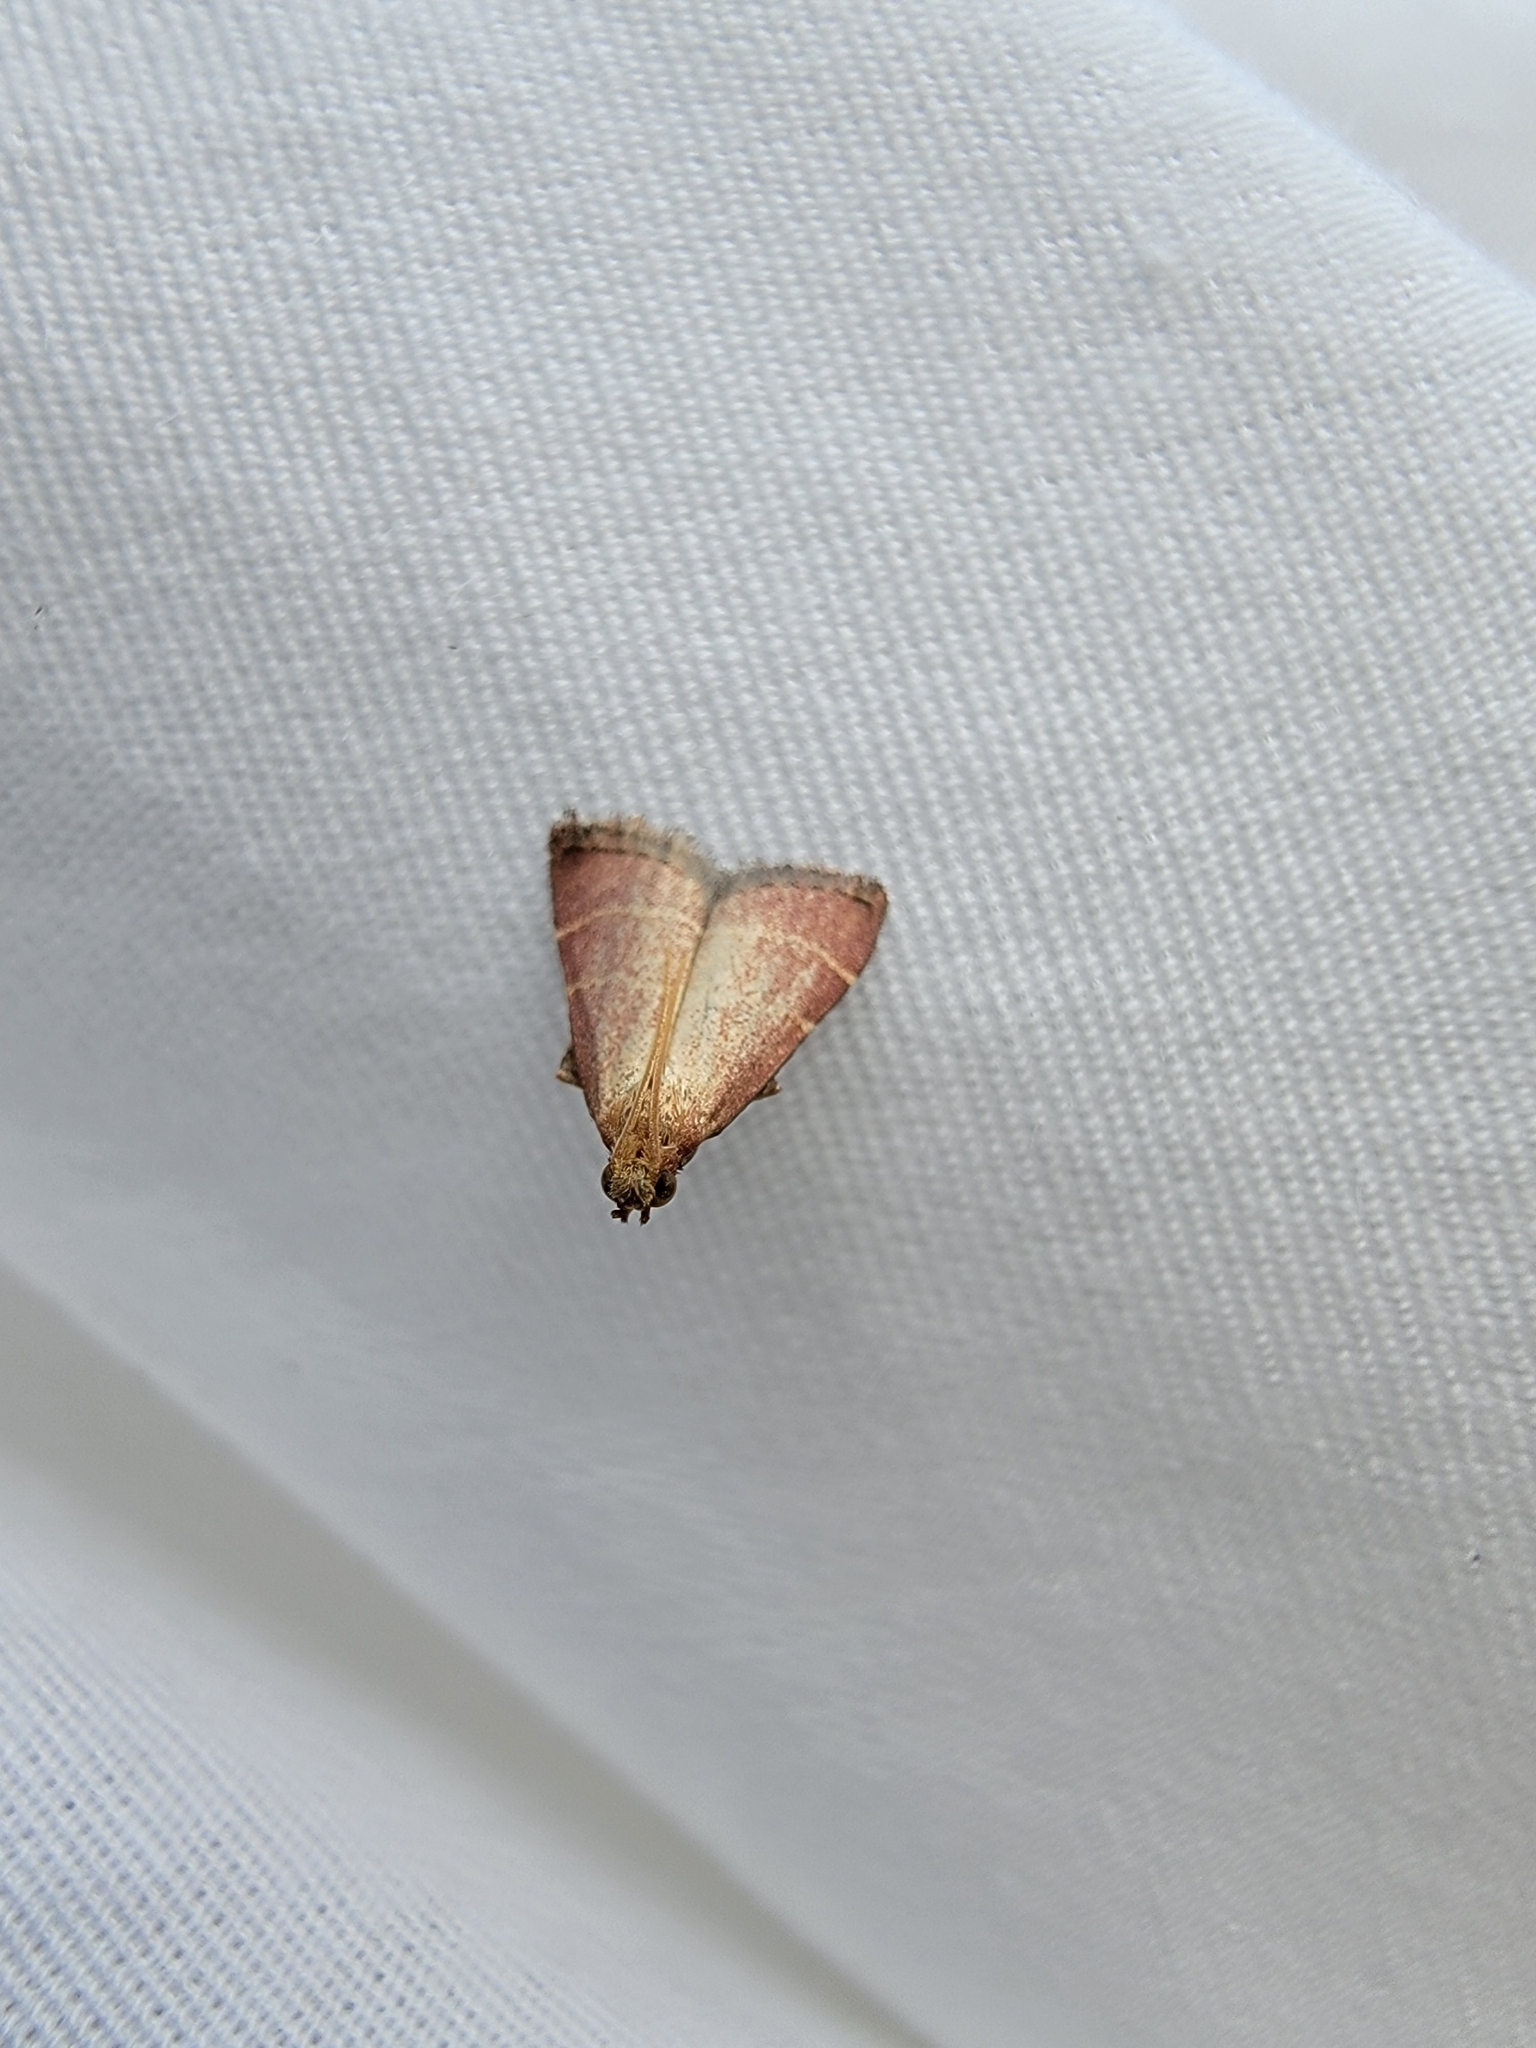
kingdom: Animalia
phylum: Arthropoda
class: Insecta
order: Lepidoptera
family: Pyralidae
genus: Arta
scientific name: Arta statalis
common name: Posturing arta moth
